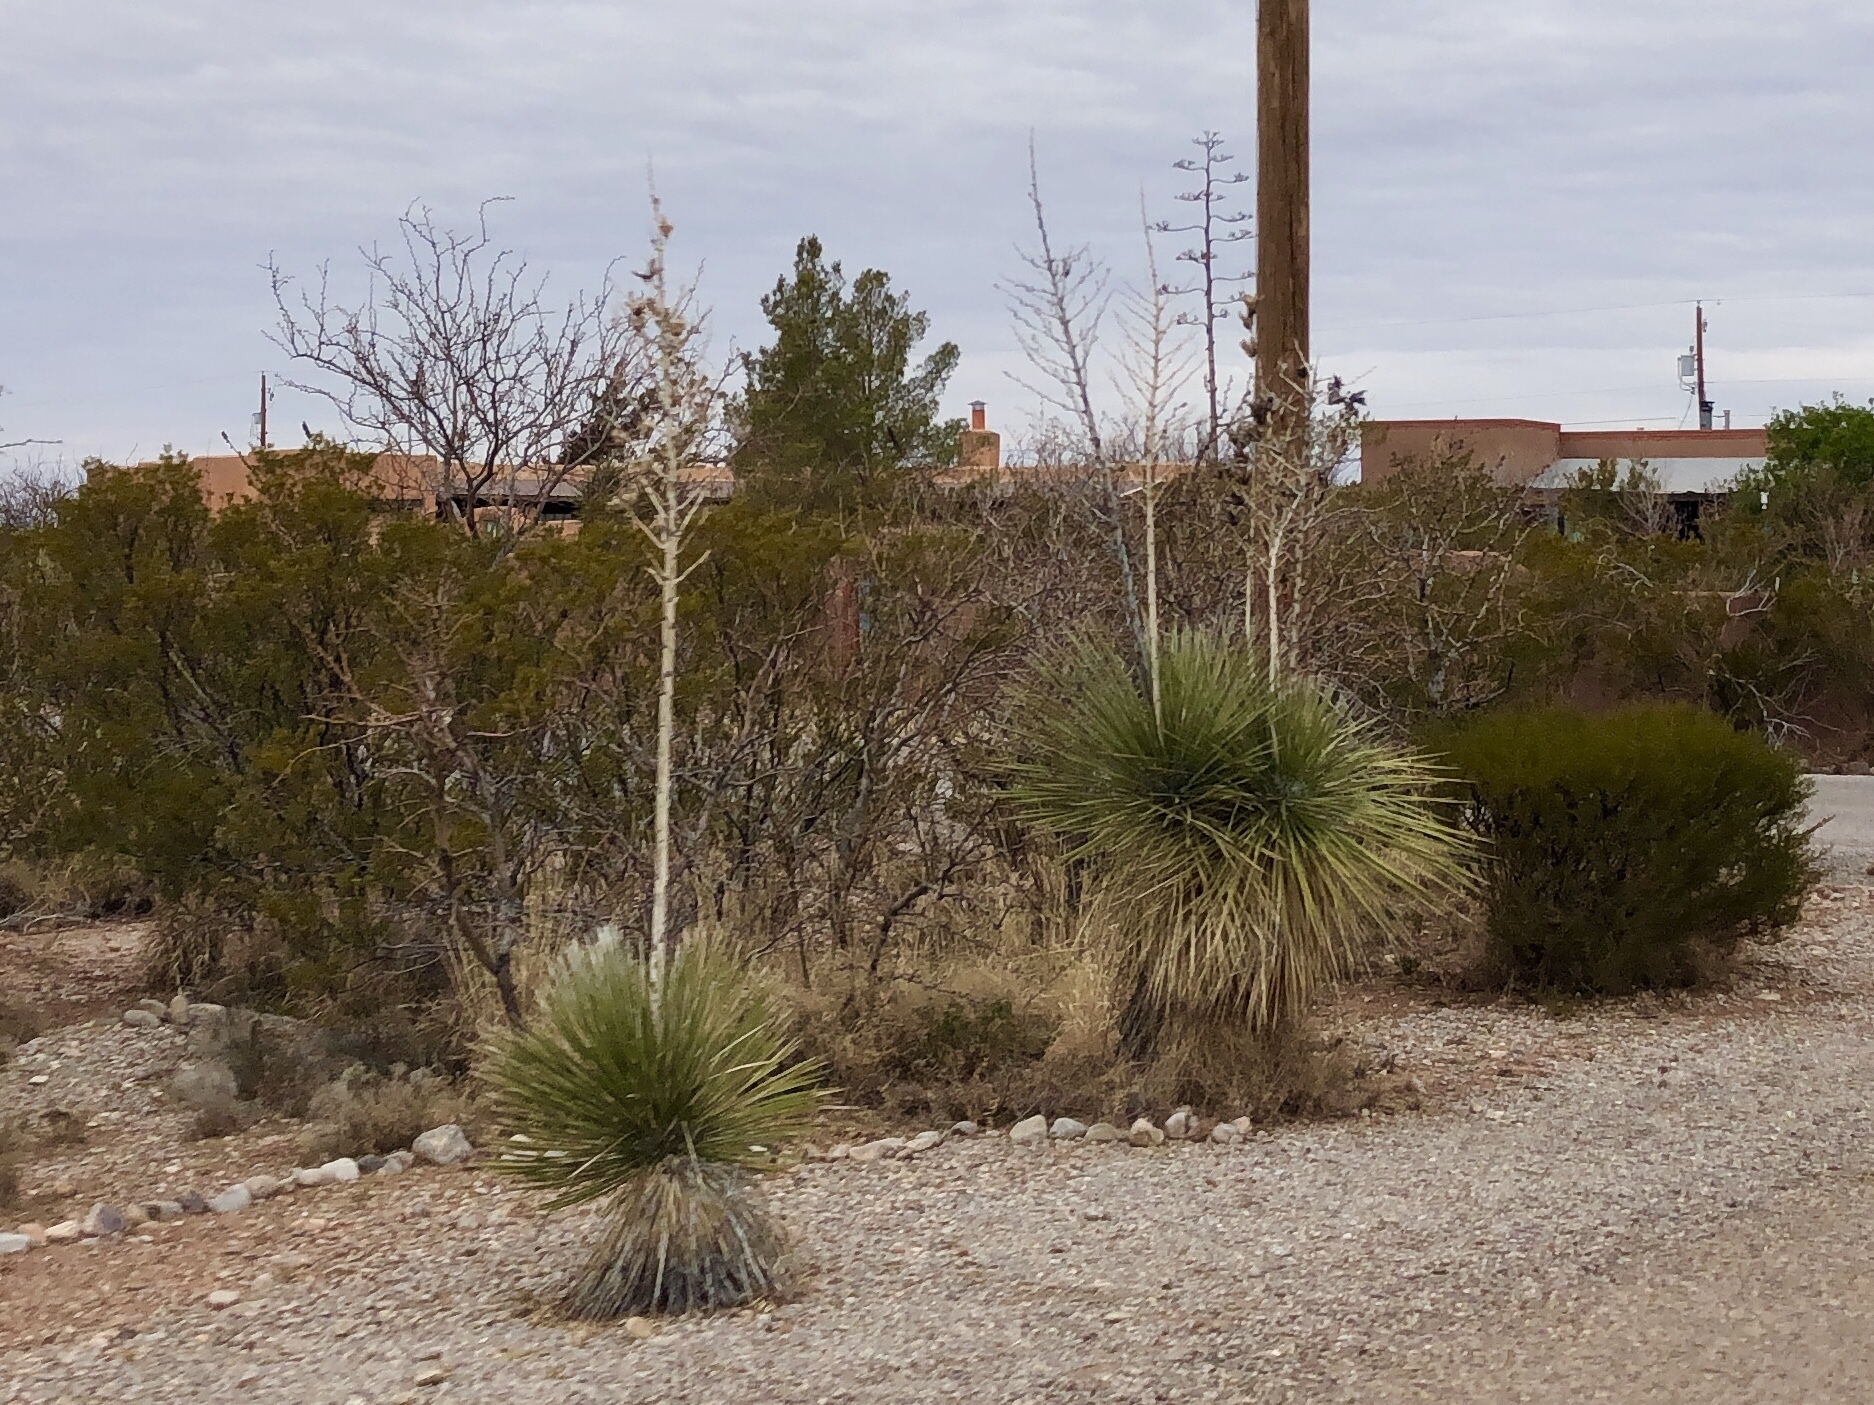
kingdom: Plantae
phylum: Tracheophyta
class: Liliopsida
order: Asparagales
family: Asparagaceae
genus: Yucca
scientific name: Yucca elata
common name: Palmella
